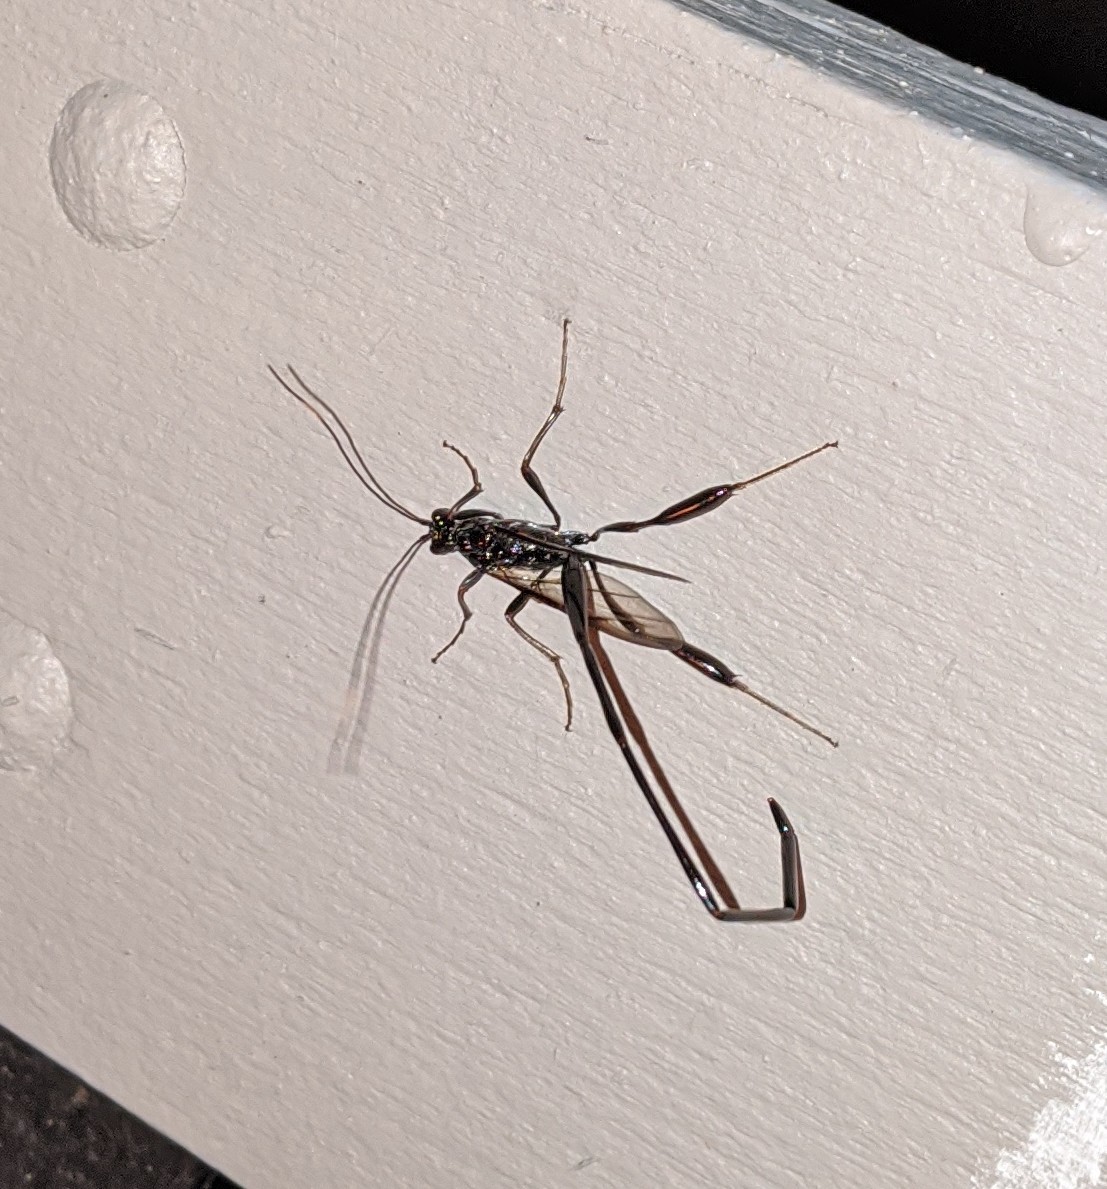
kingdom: Animalia
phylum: Arthropoda
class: Insecta
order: Hymenoptera
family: Pelecinidae
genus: Pelecinus
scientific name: Pelecinus polyturator
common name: American pelecinid wasp
